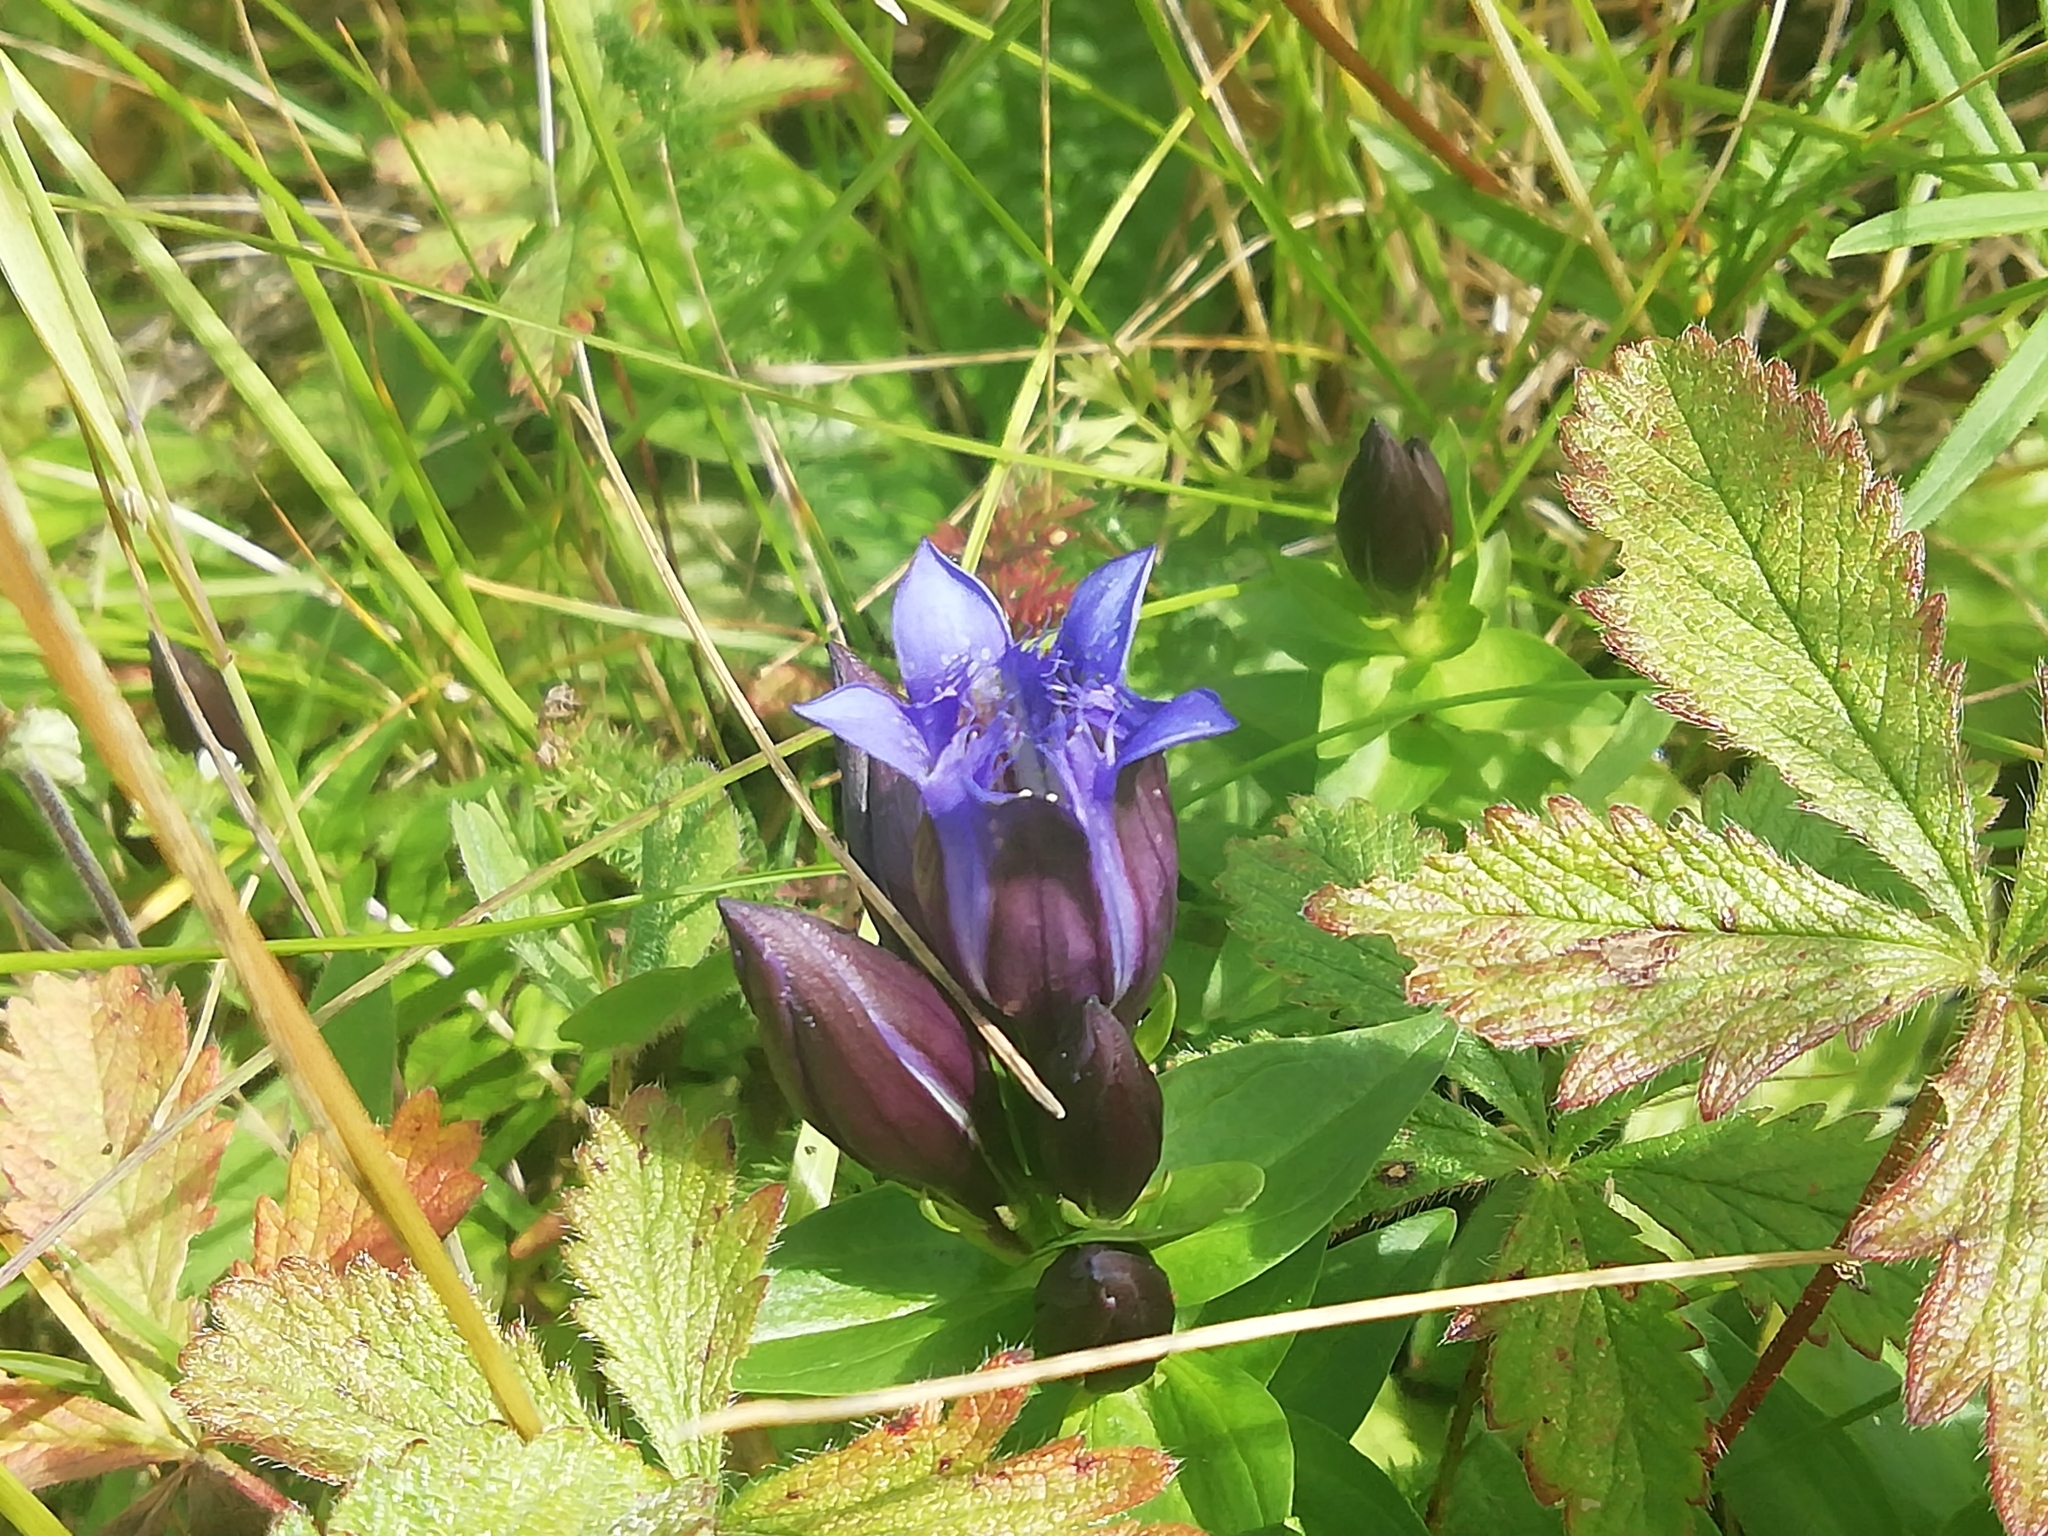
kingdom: Plantae
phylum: Tracheophyta
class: Magnoliopsida
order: Gentianales
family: Gentianaceae
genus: Gentiana
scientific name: Gentiana dschungarica
